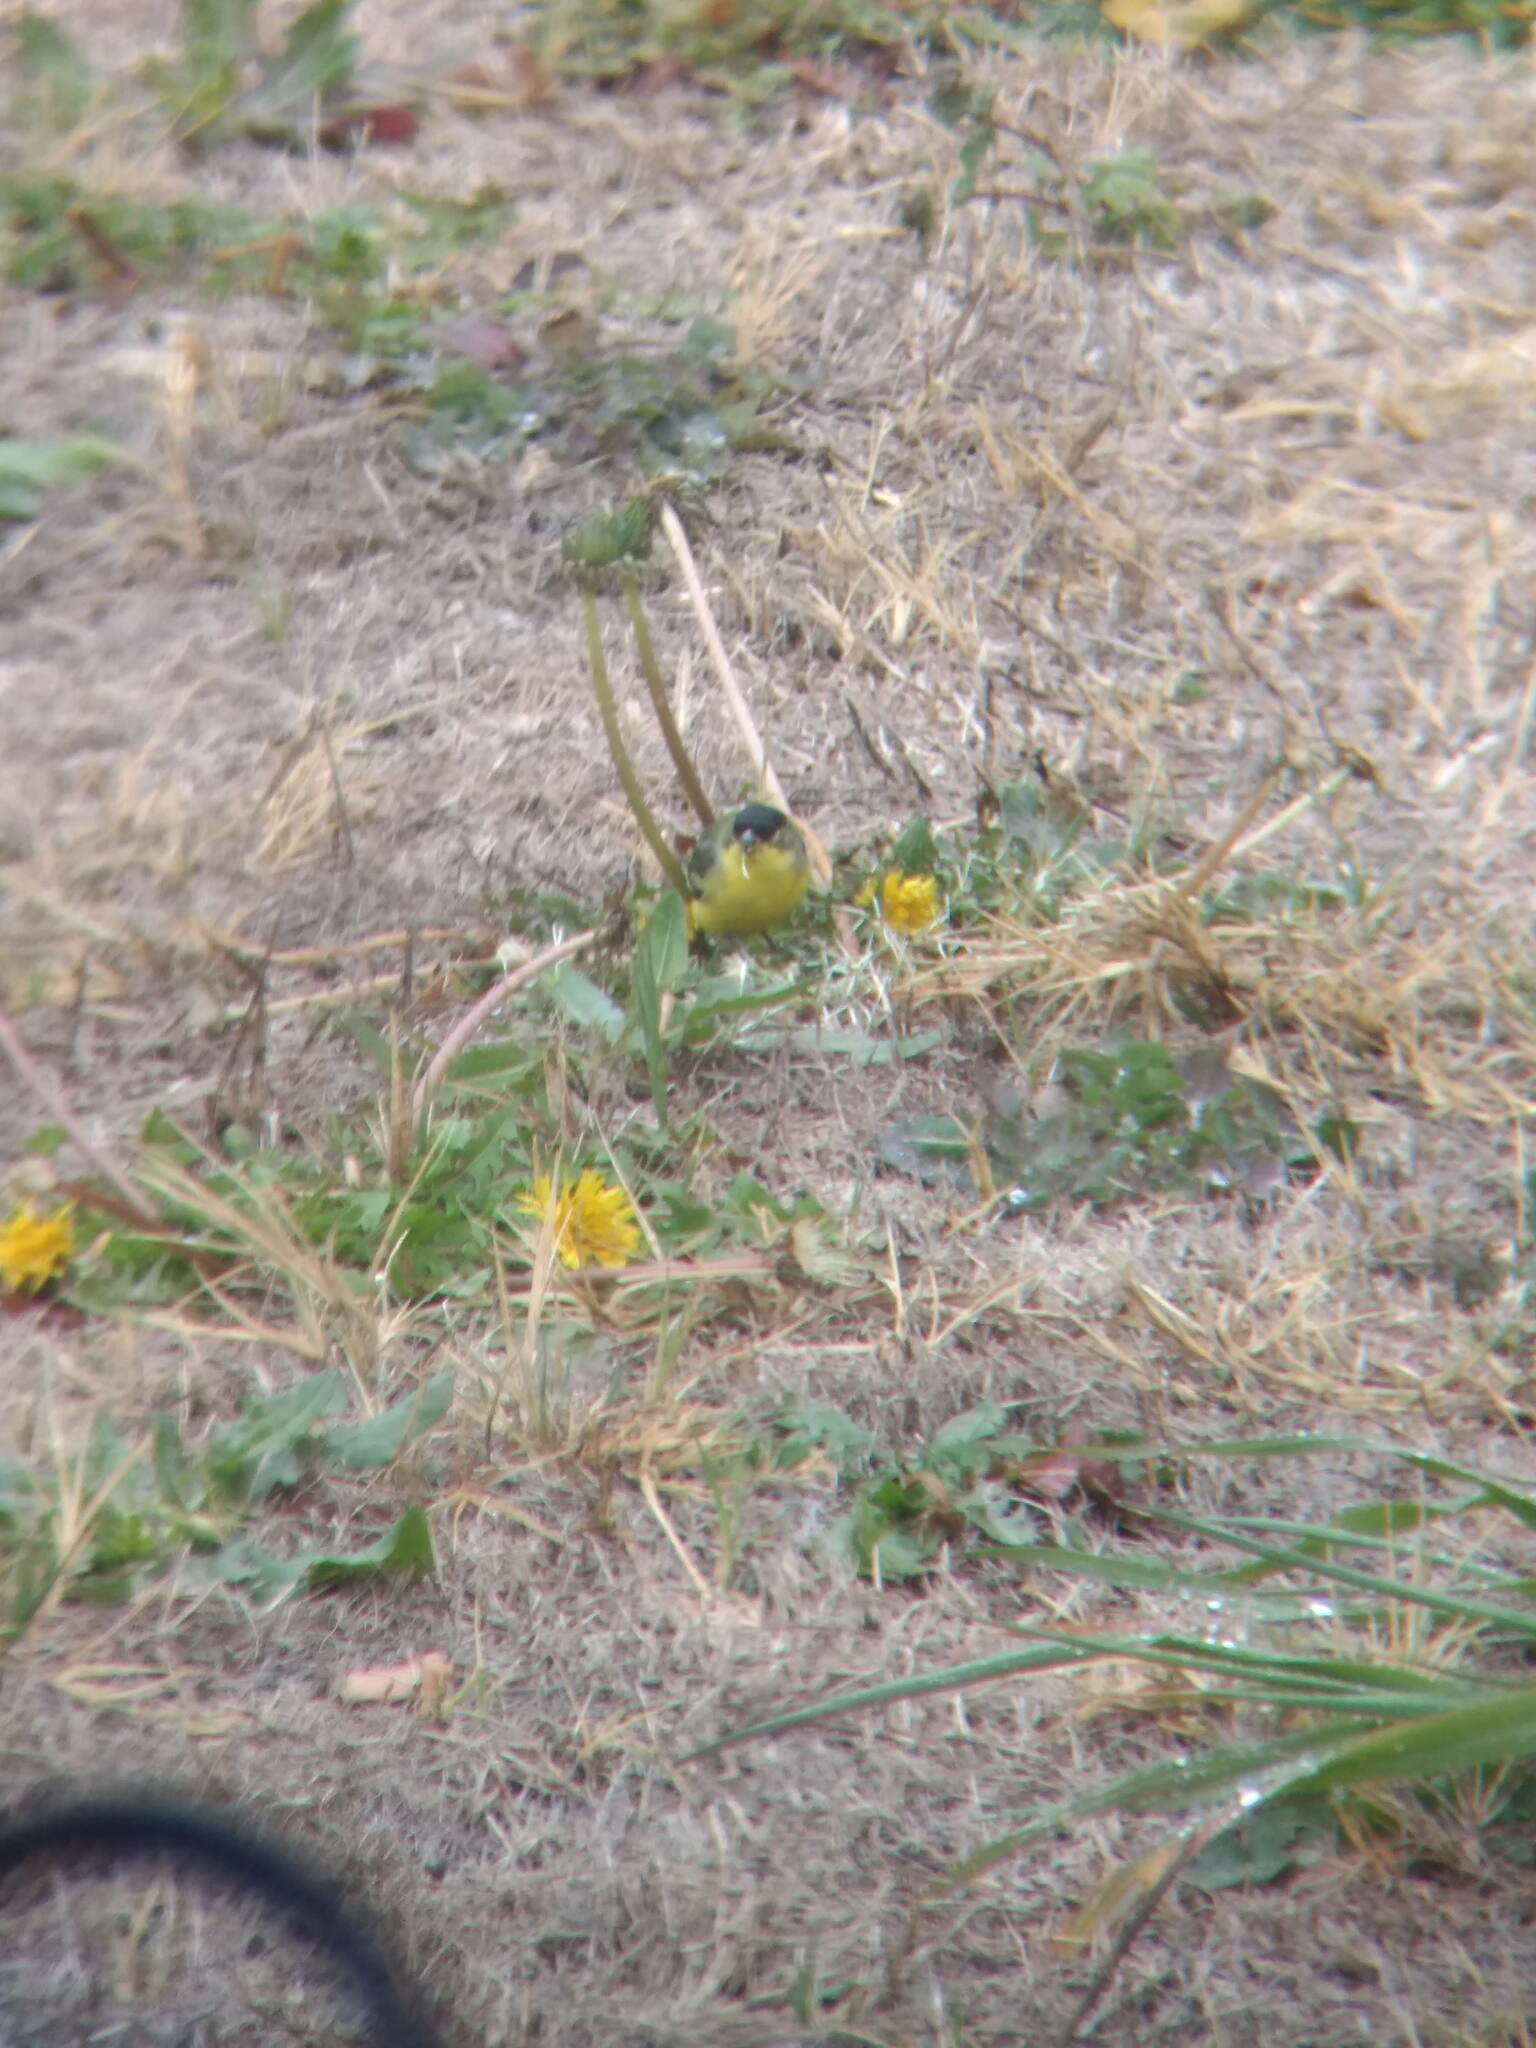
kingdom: Animalia
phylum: Chordata
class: Aves
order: Passeriformes
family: Fringillidae
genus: Spinus
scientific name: Spinus psaltria
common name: Lesser goldfinch
